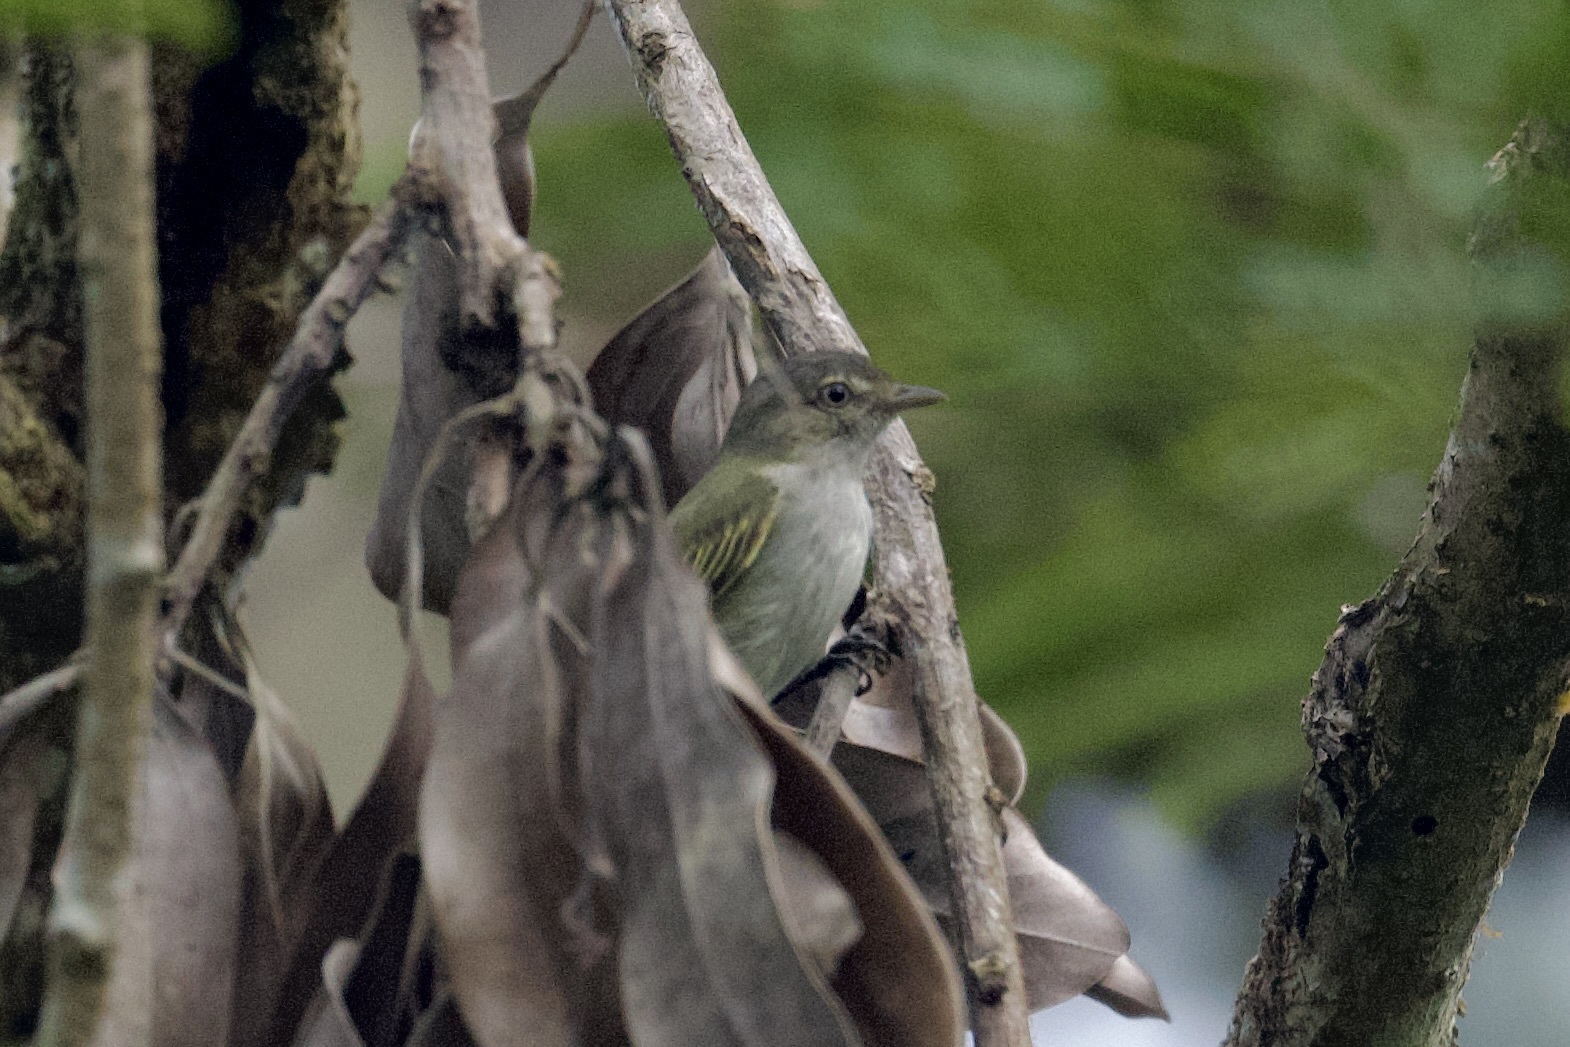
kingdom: Animalia
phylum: Chordata
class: Aves
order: Passeriformes
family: Tyrannidae
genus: Zimmerius
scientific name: Zimmerius vilissimus
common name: Paltry tyrannulet
